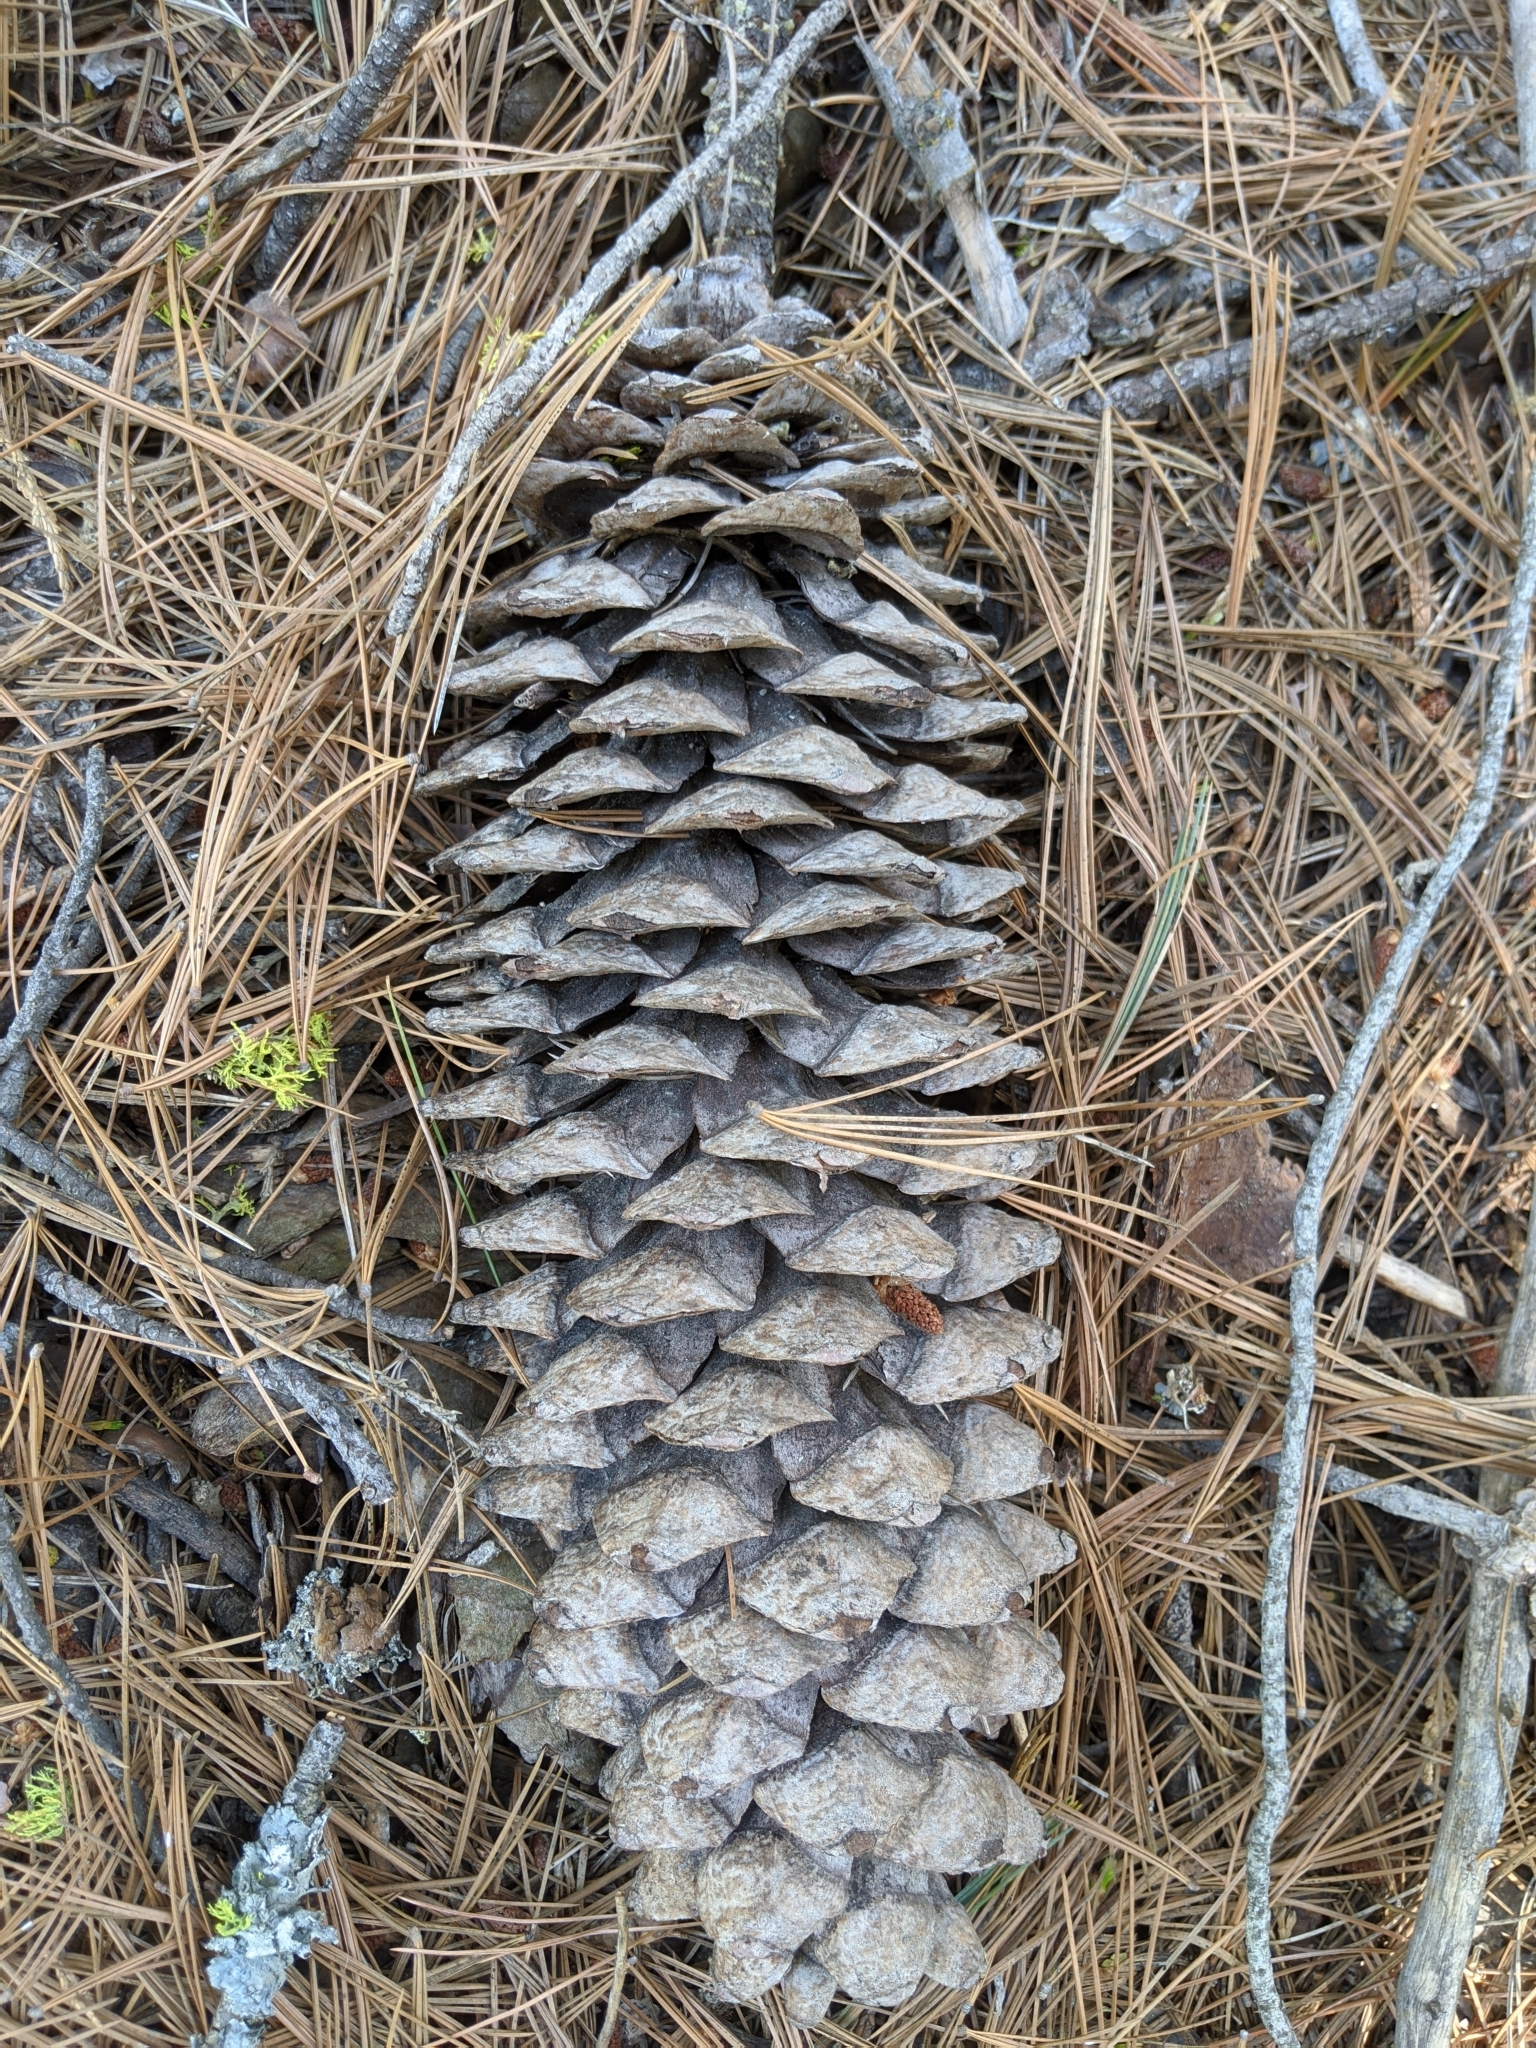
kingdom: Plantae
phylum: Tracheophyta
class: Pinopsida
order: Pinales
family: Pinaceae
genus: Pinus
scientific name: Pinus lambertiana
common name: Sugar pine
